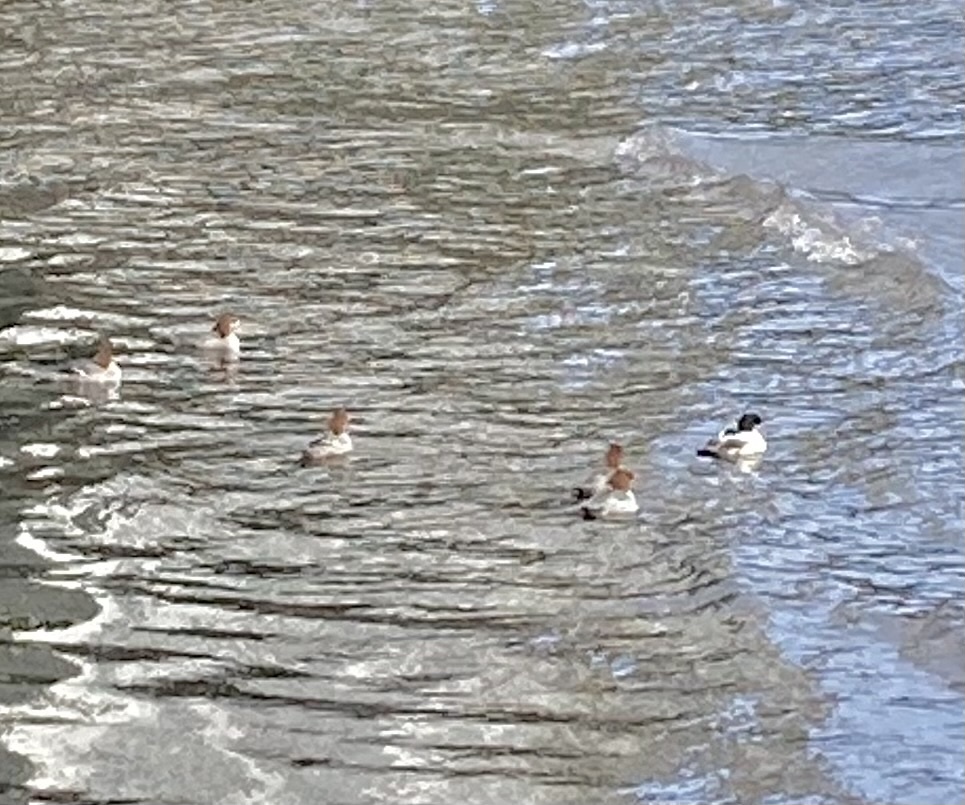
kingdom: Animalia
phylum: Chordata
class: Aves
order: Anseriformes
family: Anatidae
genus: Mergus
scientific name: Mergus merganser
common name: Common merganser
